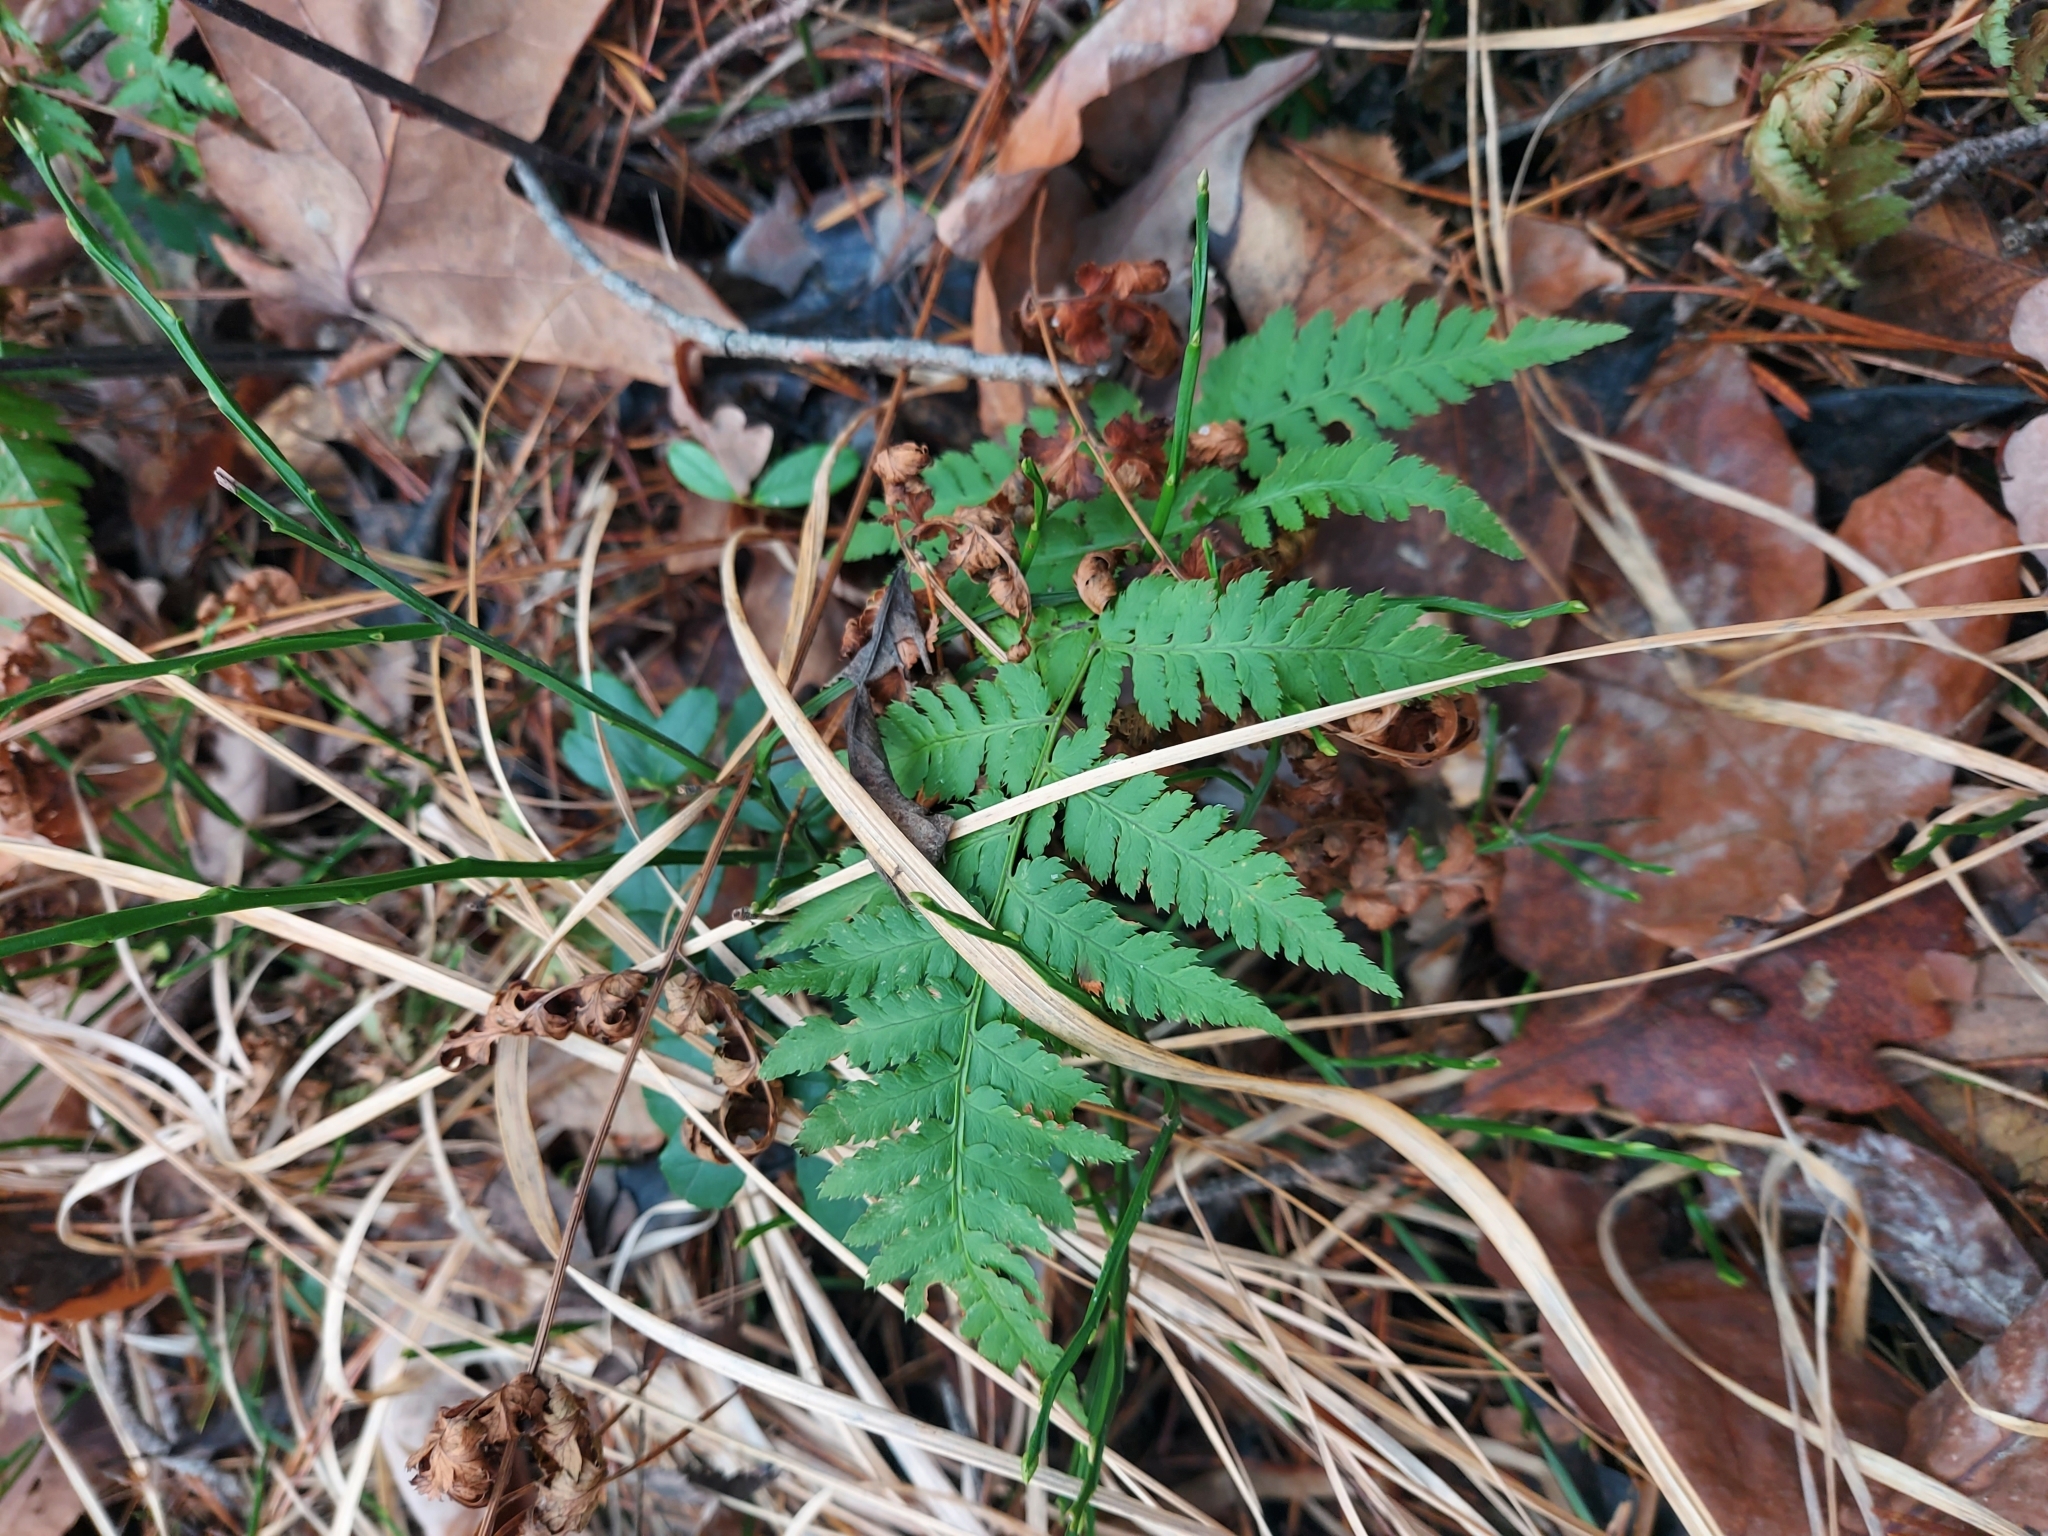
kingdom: Plantae
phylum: Tracheophyta
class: Polypodiopsida
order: Polypodiales
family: Dryopteridaceae
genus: Dryopteris
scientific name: Dryopteris carthusiana
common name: Narrow buckler-fern
